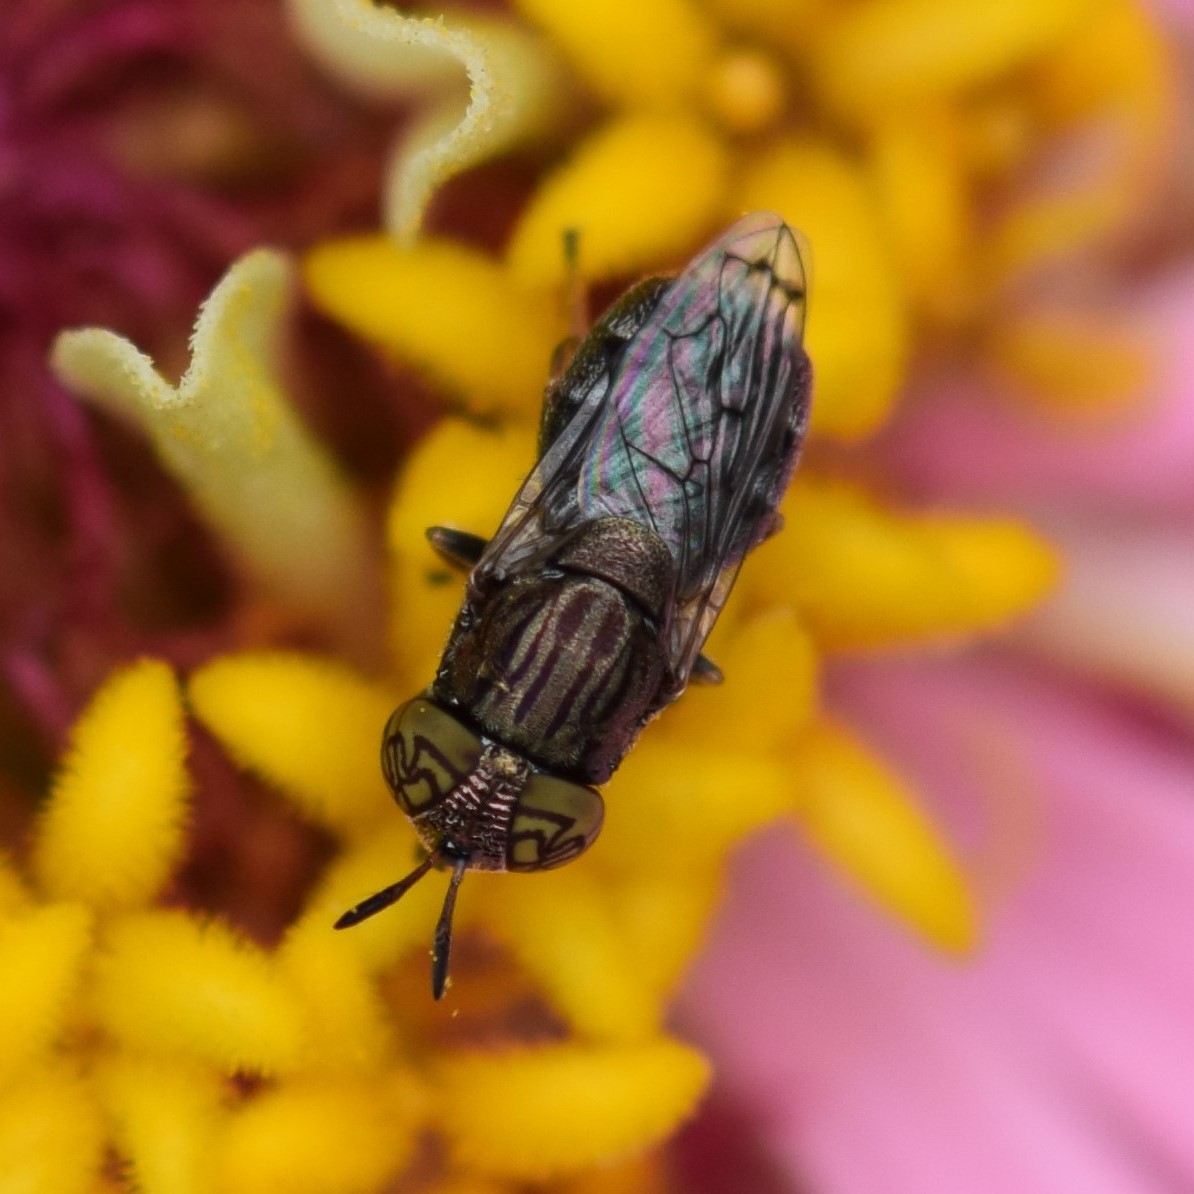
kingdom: Animalia
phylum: Arthropoda
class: Insecta
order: Diptera
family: Syrphidae
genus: Orthonevra
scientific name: Orthonevra nitida
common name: Wavy mucksucker
